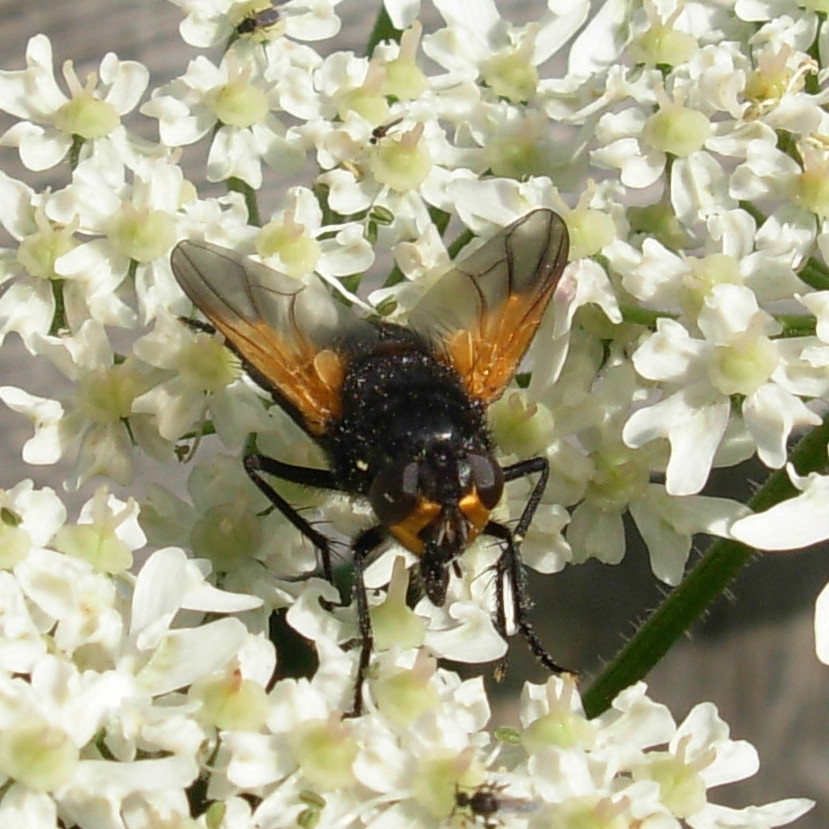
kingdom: Animalia
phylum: Arthropoda
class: Insecta
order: Diptera
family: Muscidae
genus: Mesembrina
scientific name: Mesembrina meridiana
